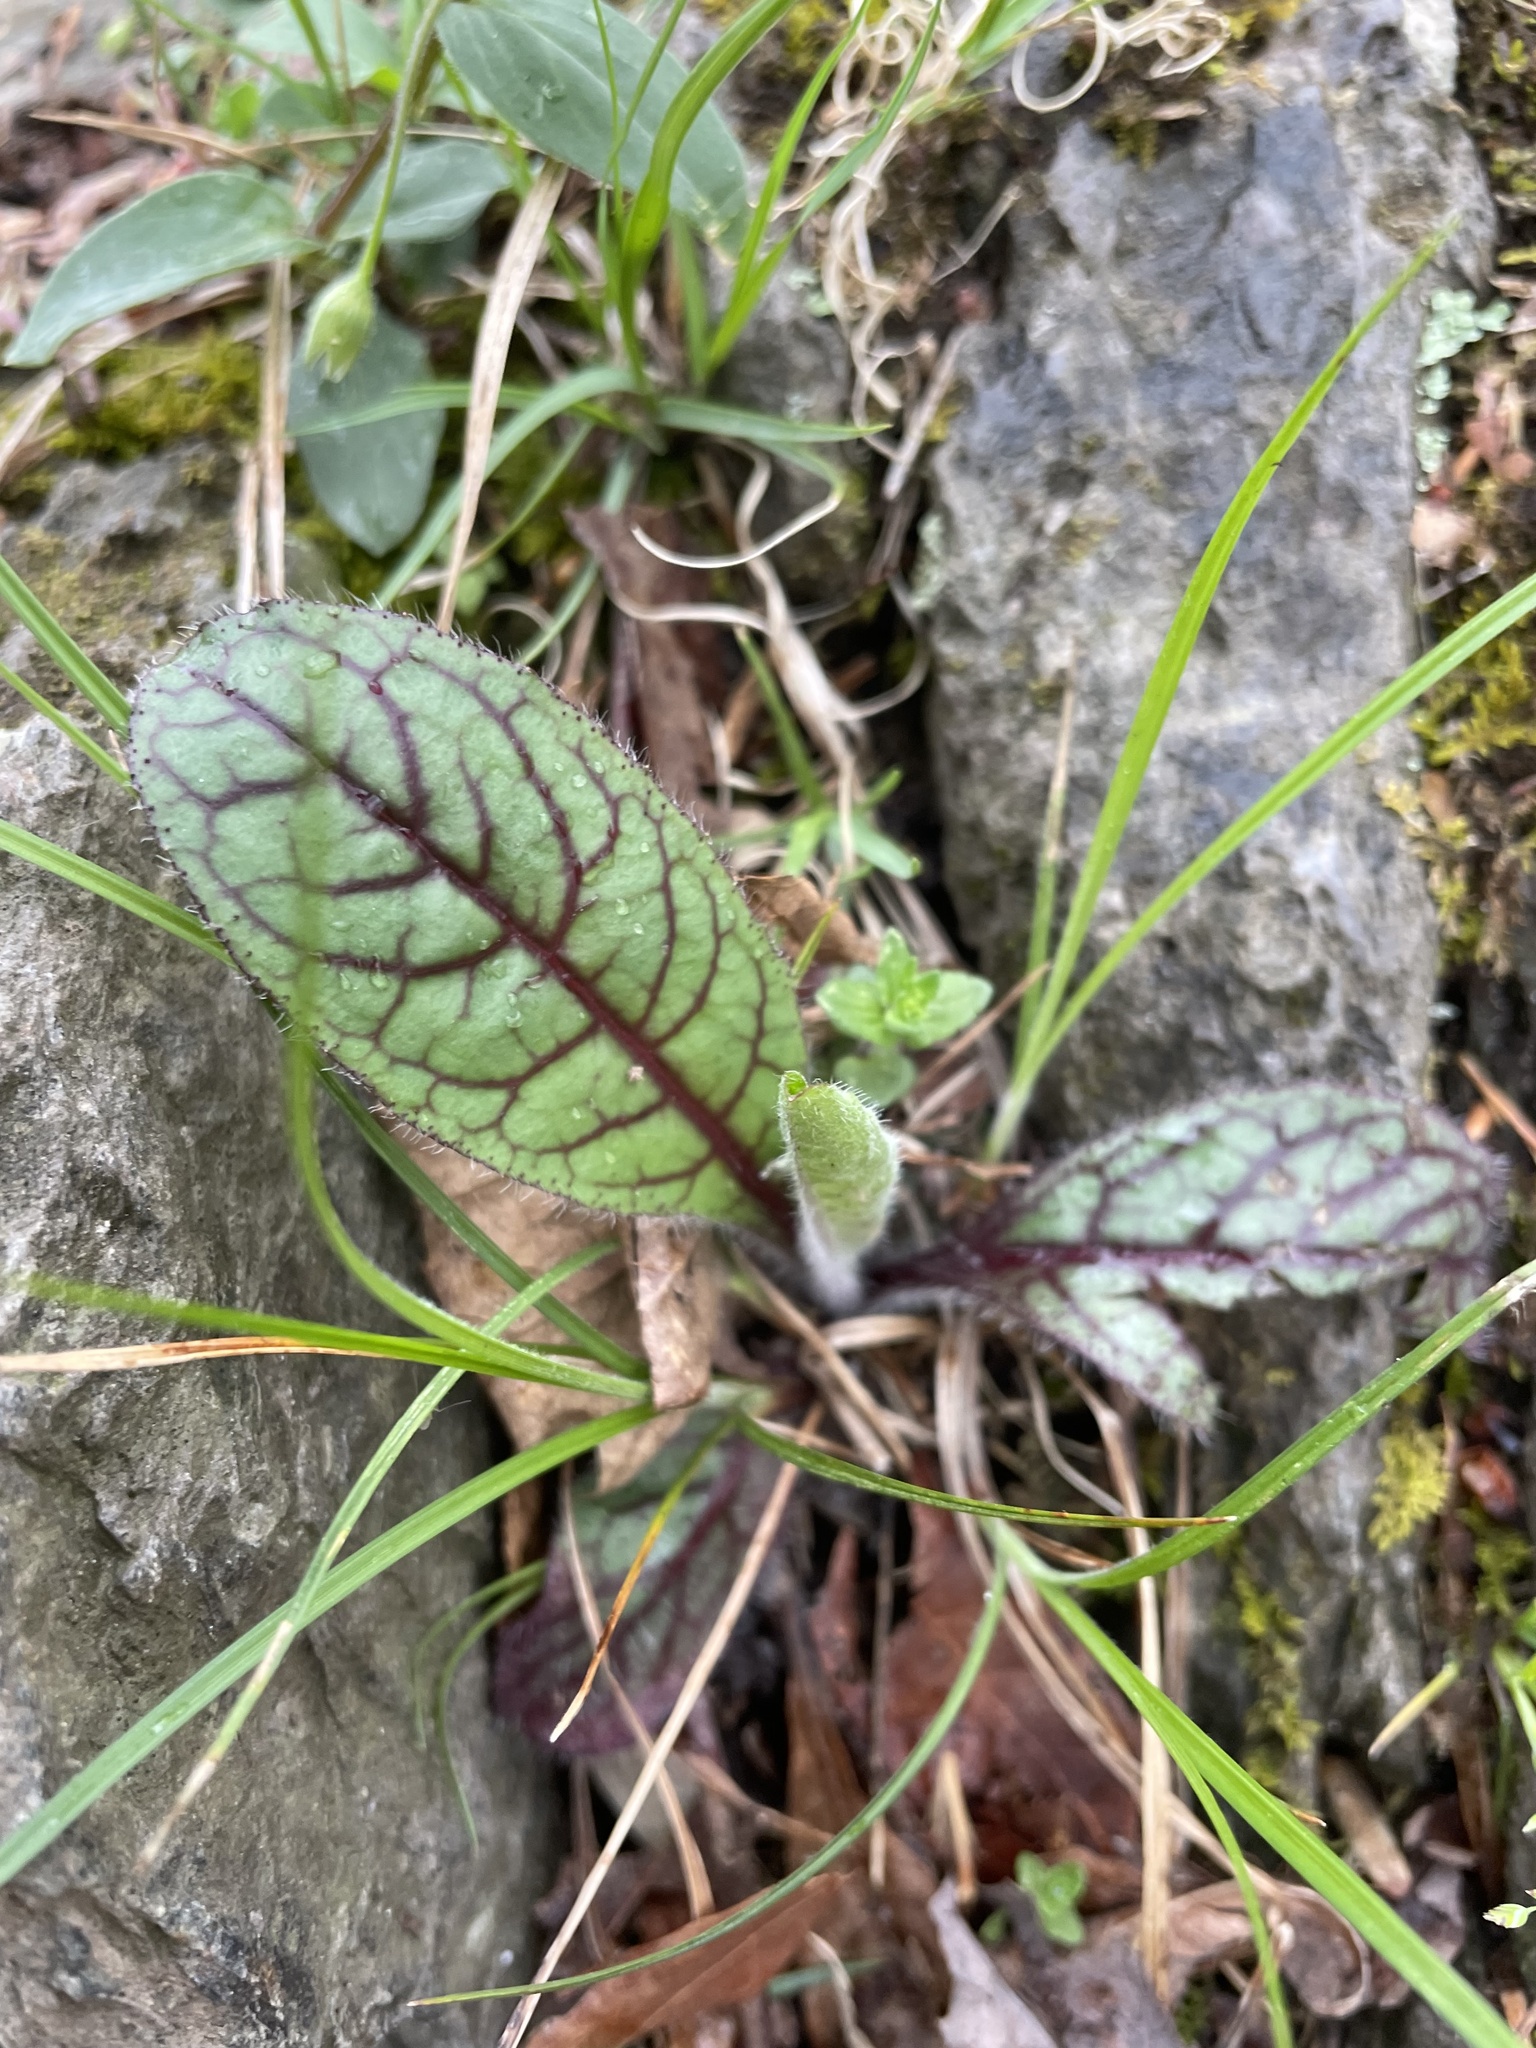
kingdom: Plantae
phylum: Tracheophyta
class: Magnoliopsida
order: Asterales
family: Asteraceae
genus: Hieracium
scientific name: Hieracium venosum
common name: Rattlesnake hawkweed
